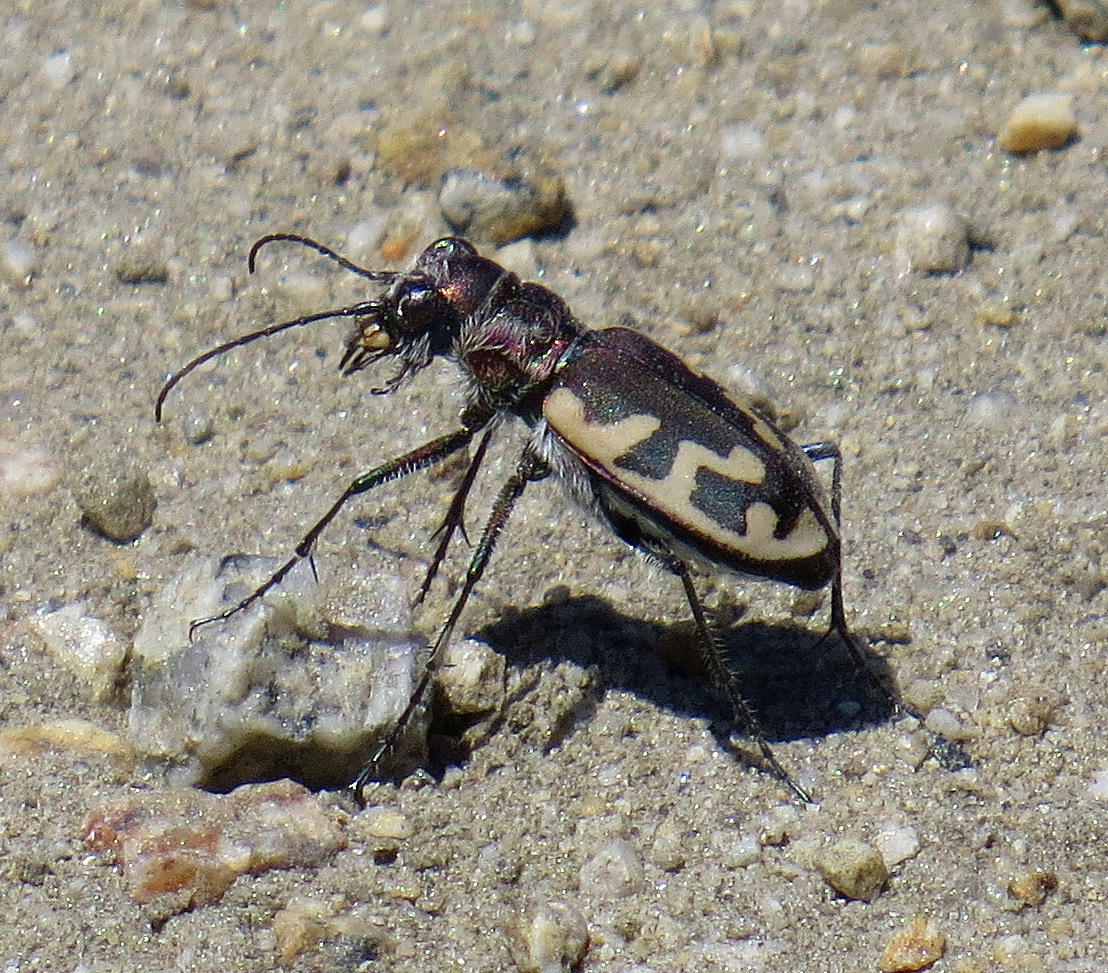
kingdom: Animalia
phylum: Arthropoda
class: Insecta
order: Coleoptera
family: Carabidae
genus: Cicindela
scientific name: Cicindela formosa
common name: Big sand tiger beetle
